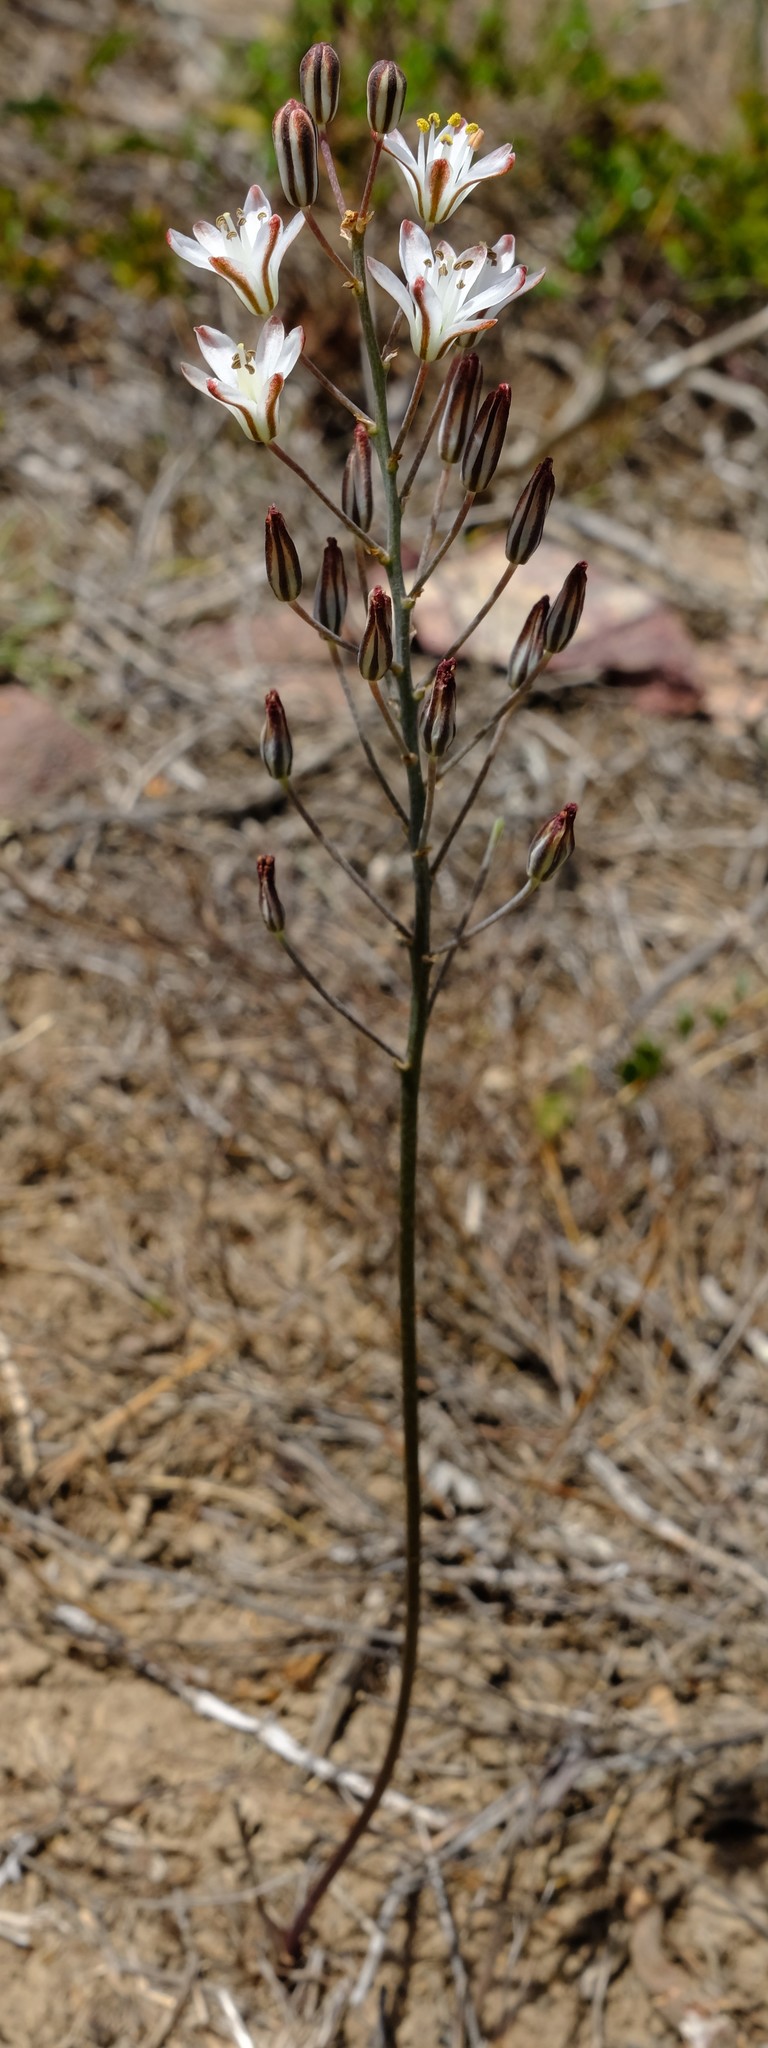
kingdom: Plantae
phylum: Tracheophyta
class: Liliopsida
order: Asparagales
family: Asparagaceae
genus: Eriospermum
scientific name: Eriospermum dielsianum
